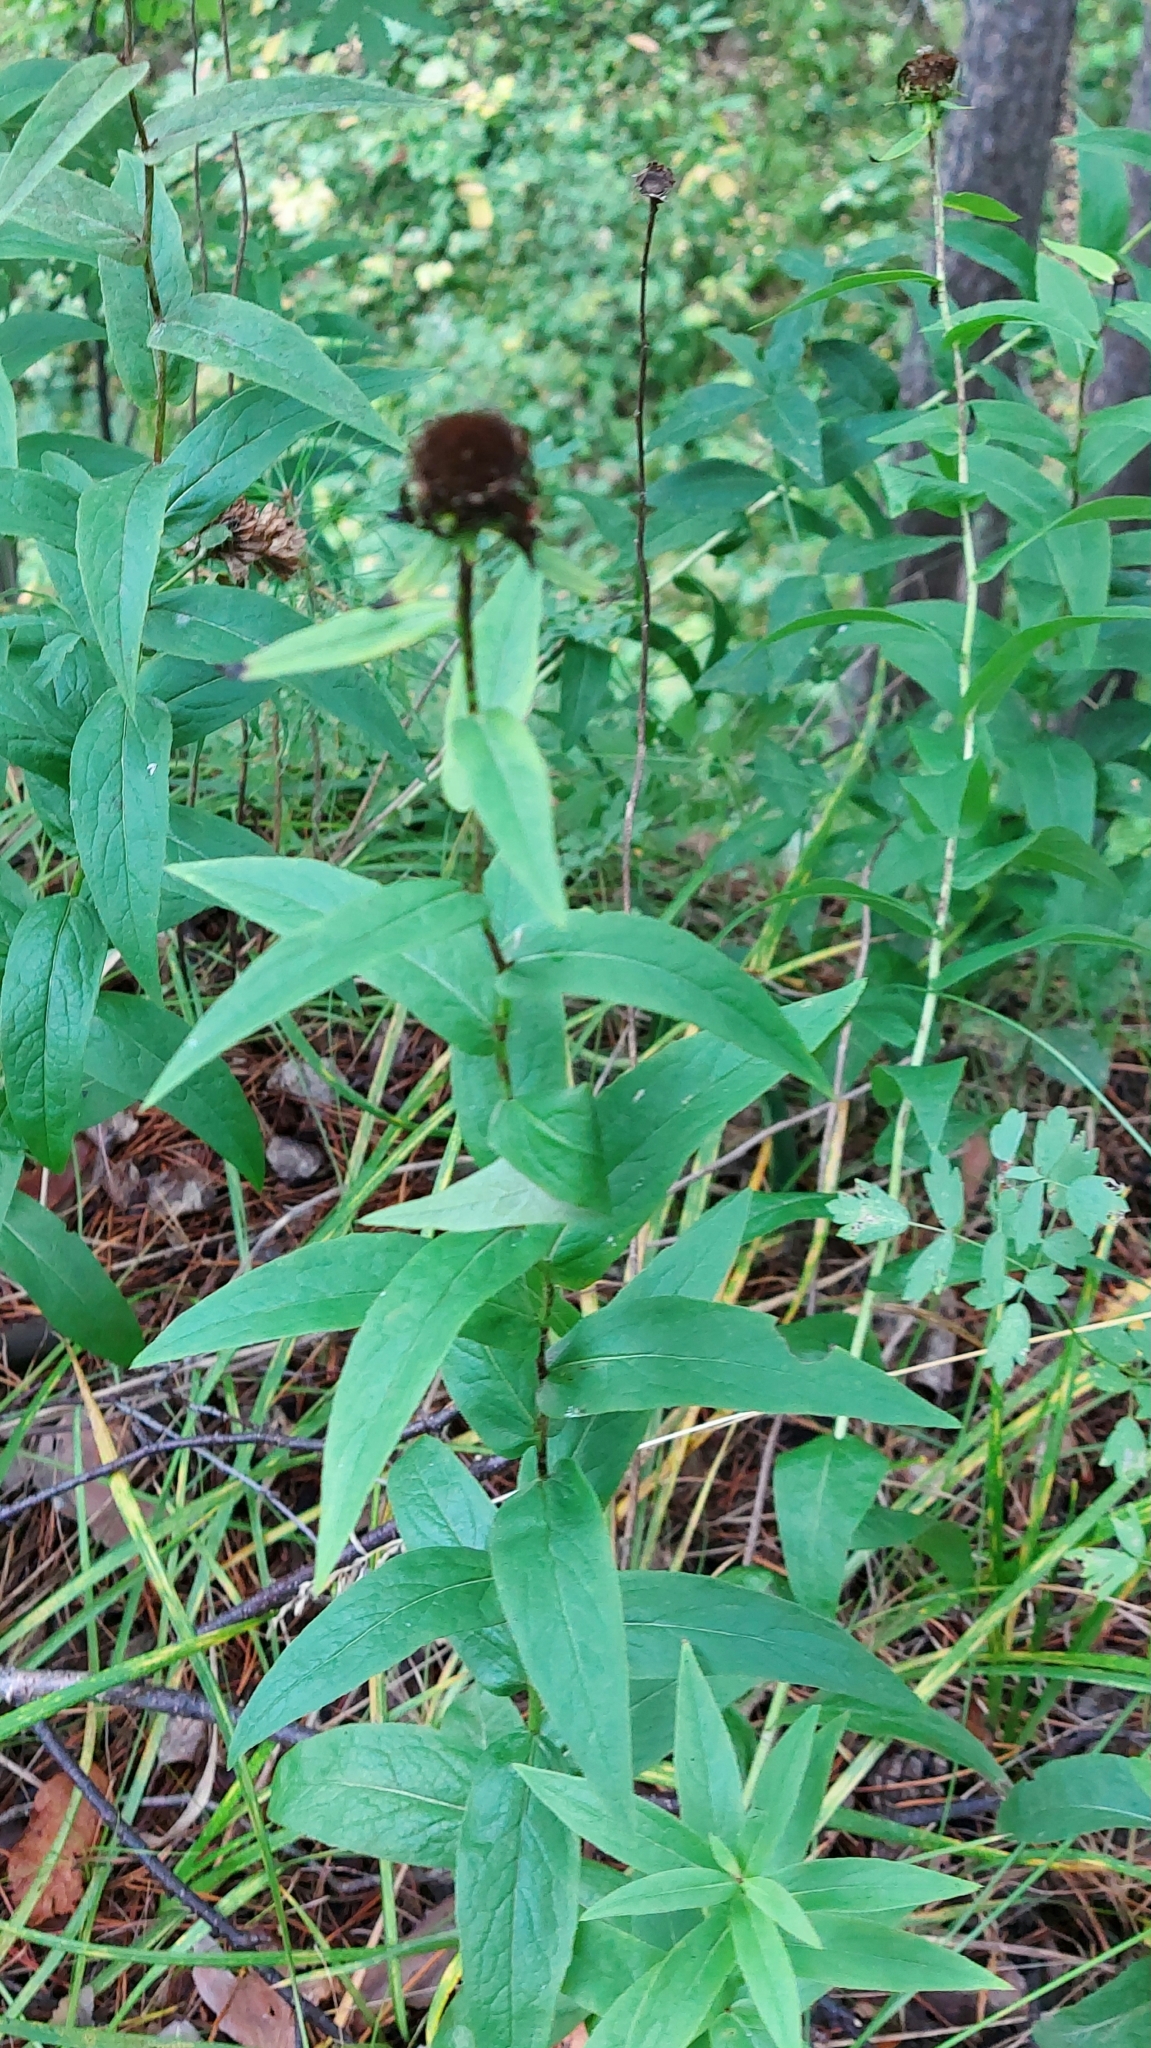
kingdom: Plantae
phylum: Tracheophyta
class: Magnoliopsida
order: Asterales
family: Asteraceae
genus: Pentanema
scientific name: Pentanema salicinum
